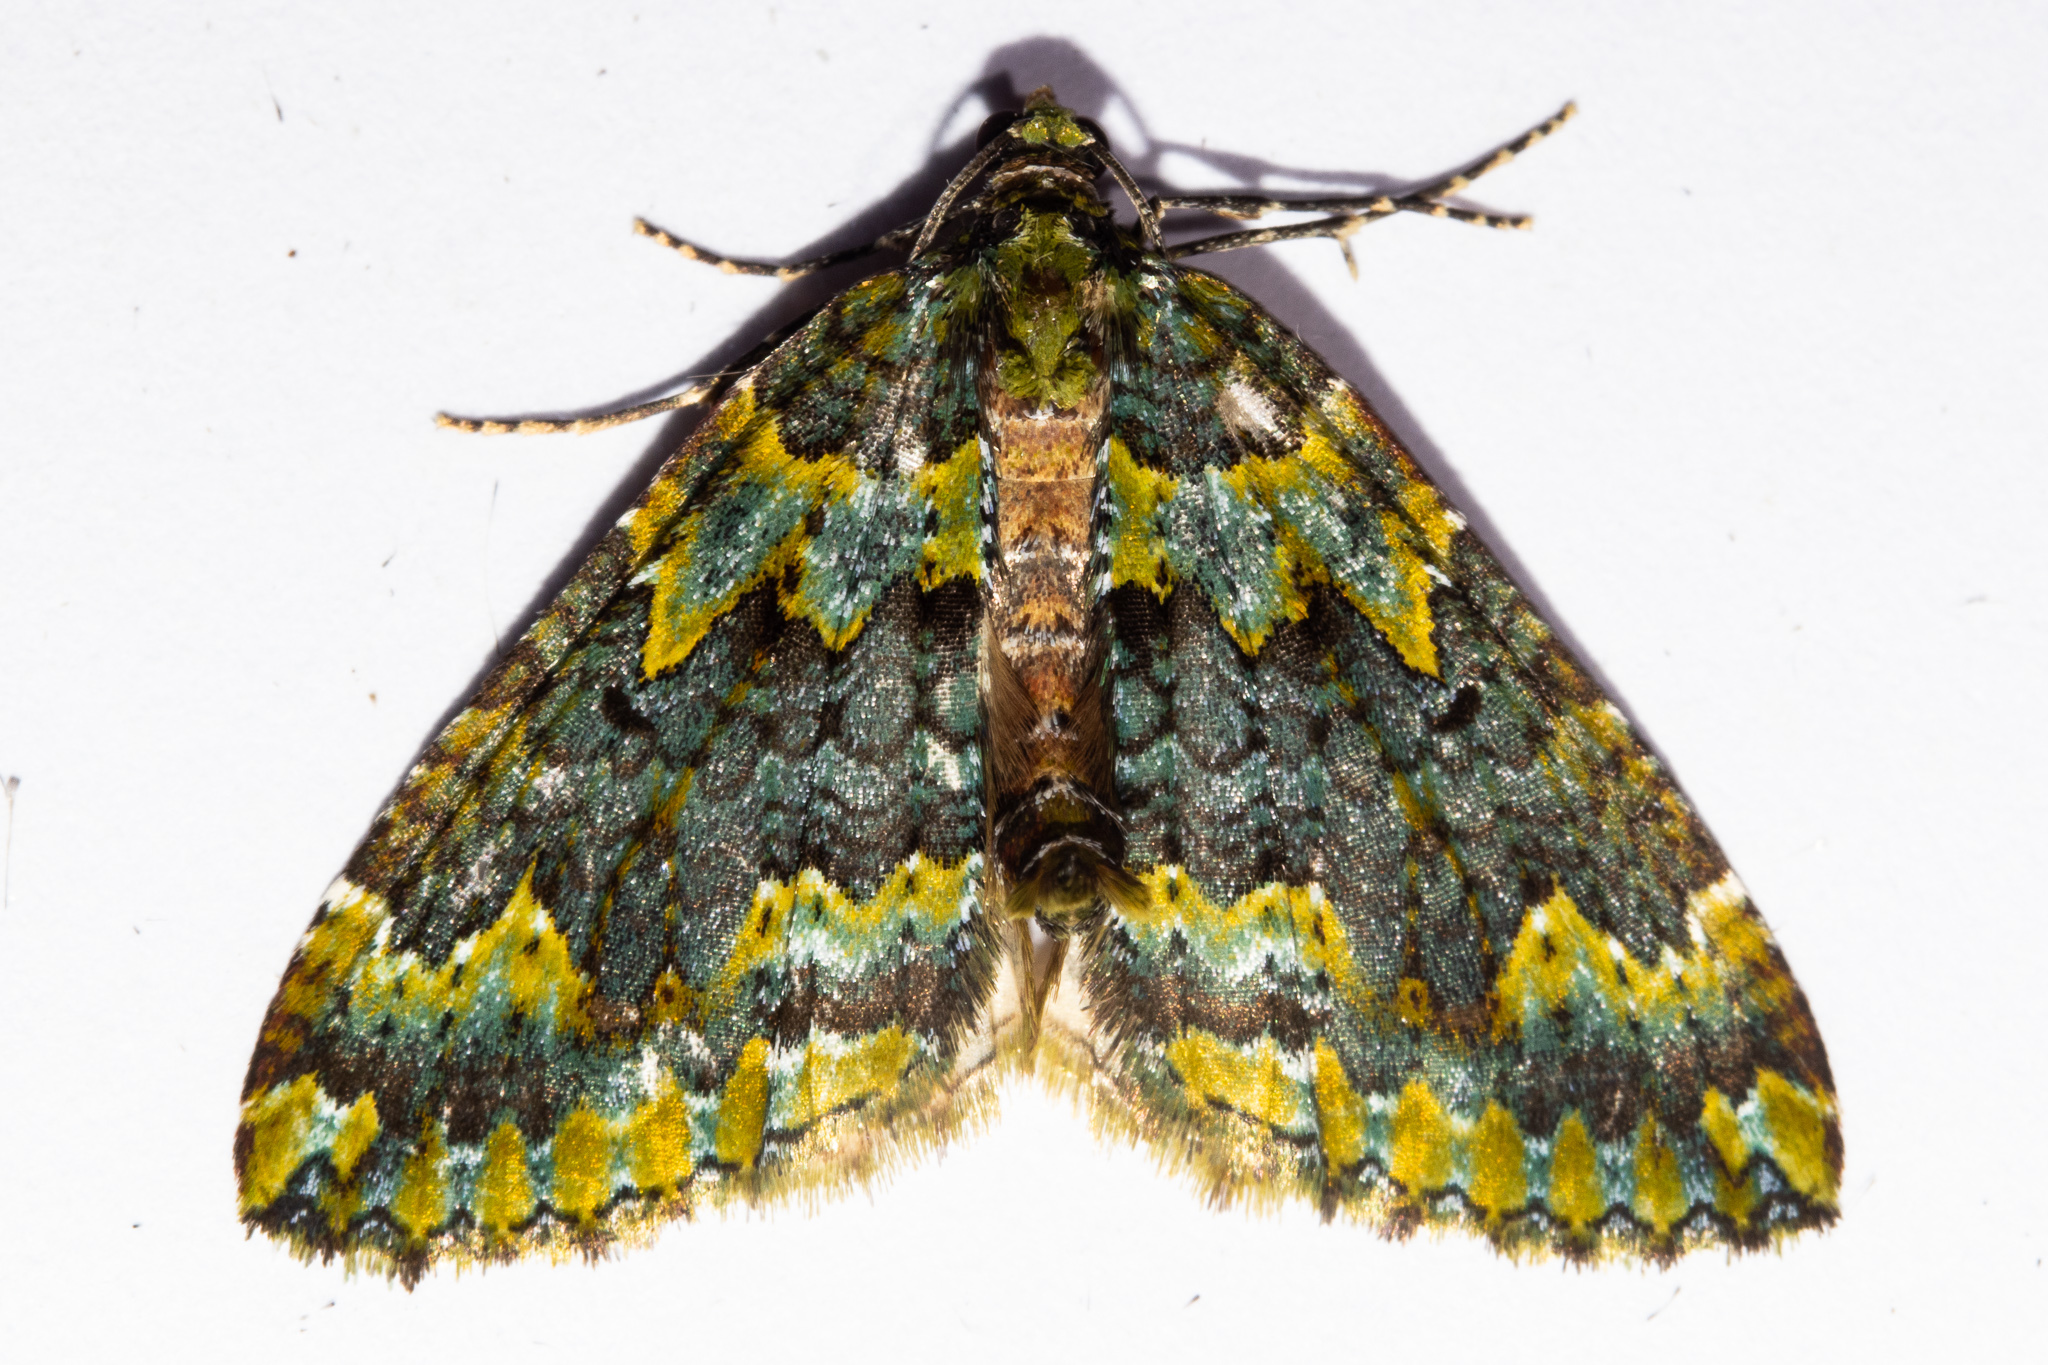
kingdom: Animalia
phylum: Arthropoda
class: Insecta
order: Lepidoptera
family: Geometridae
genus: Austrocidaria
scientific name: Austrocidaria callichlora
